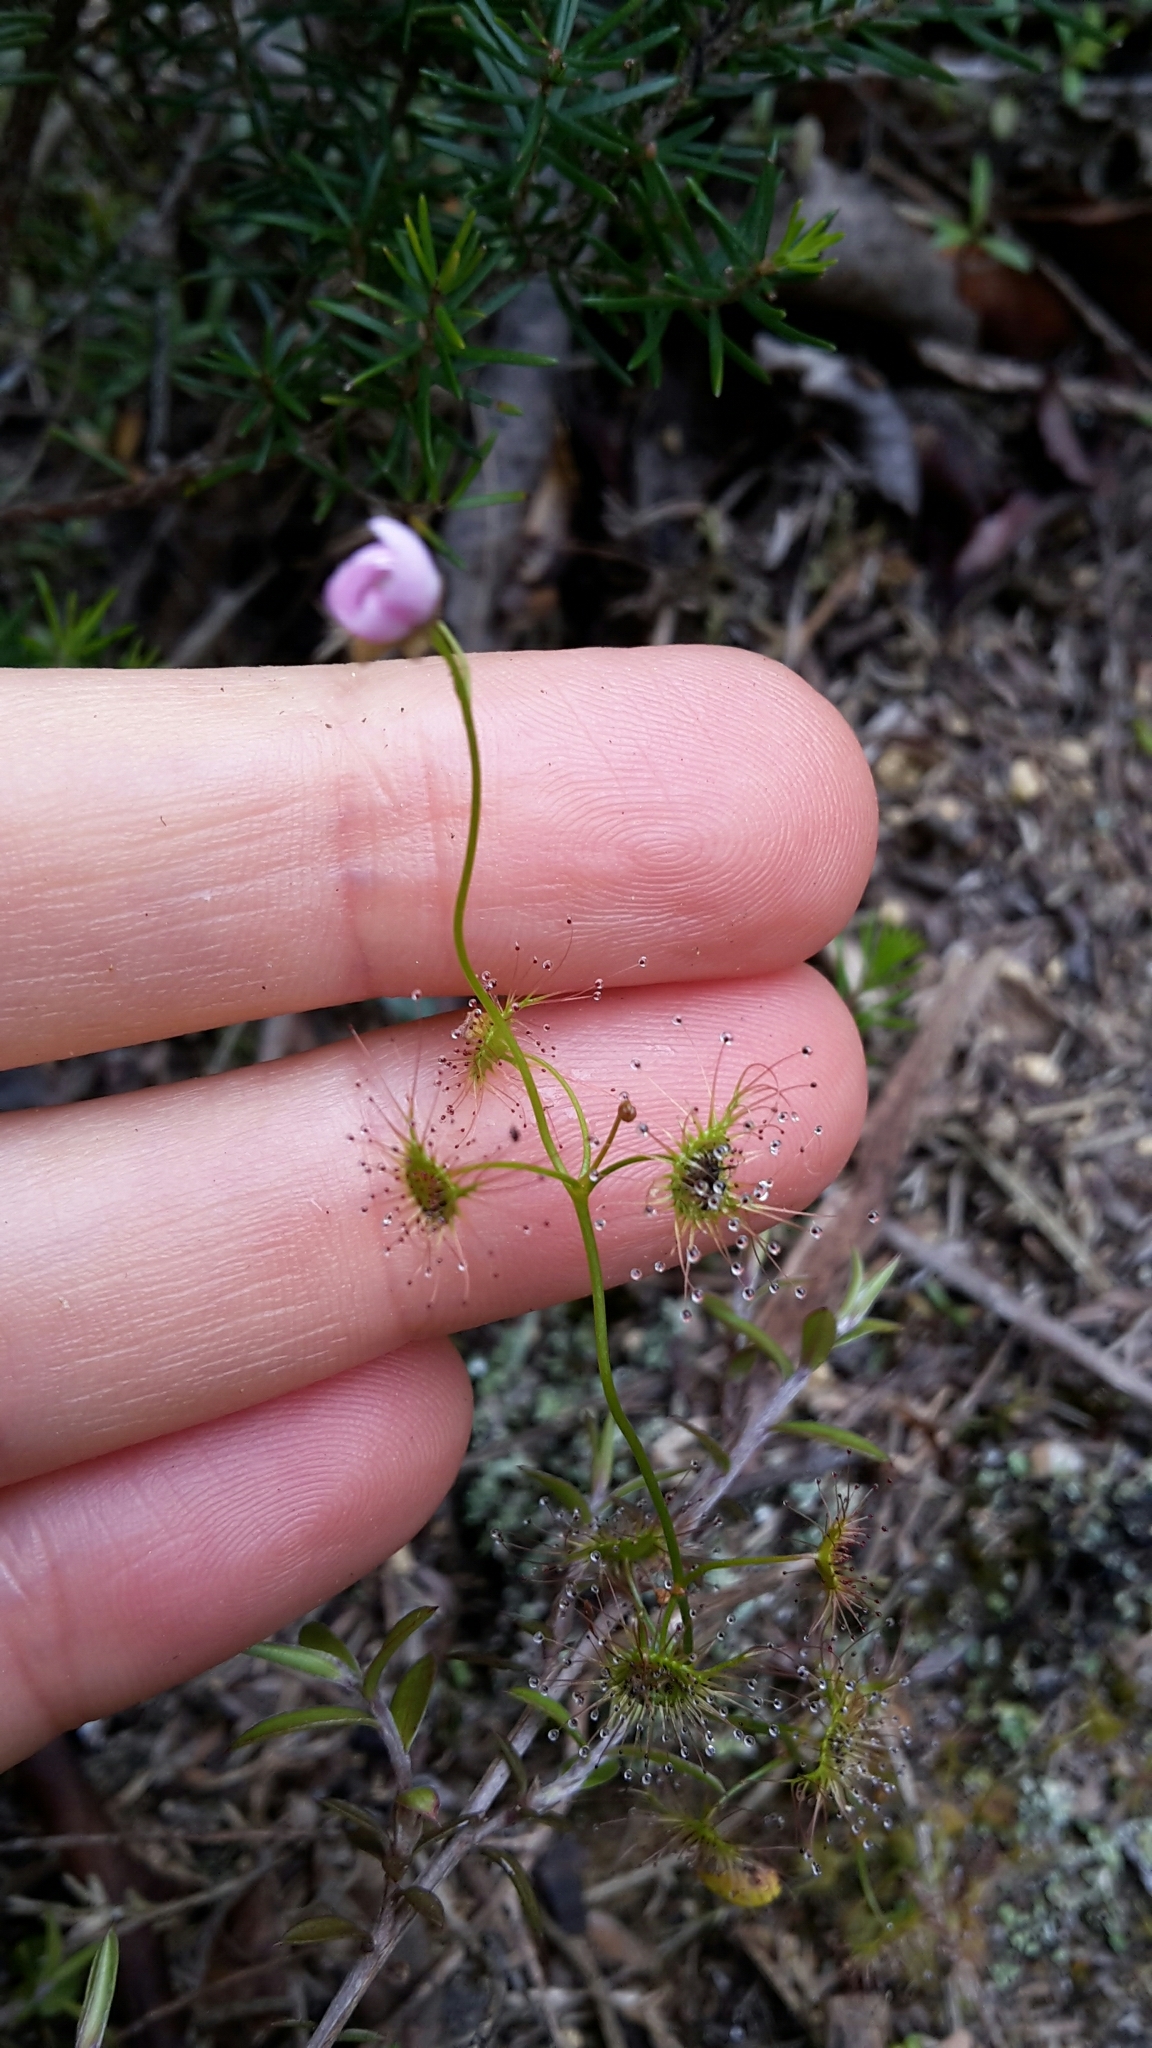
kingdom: Plantae
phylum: Tracheophyta
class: Magnoliopsida
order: Caryophyllales
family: Droseraceae
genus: Drosera
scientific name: Drosera peltata
